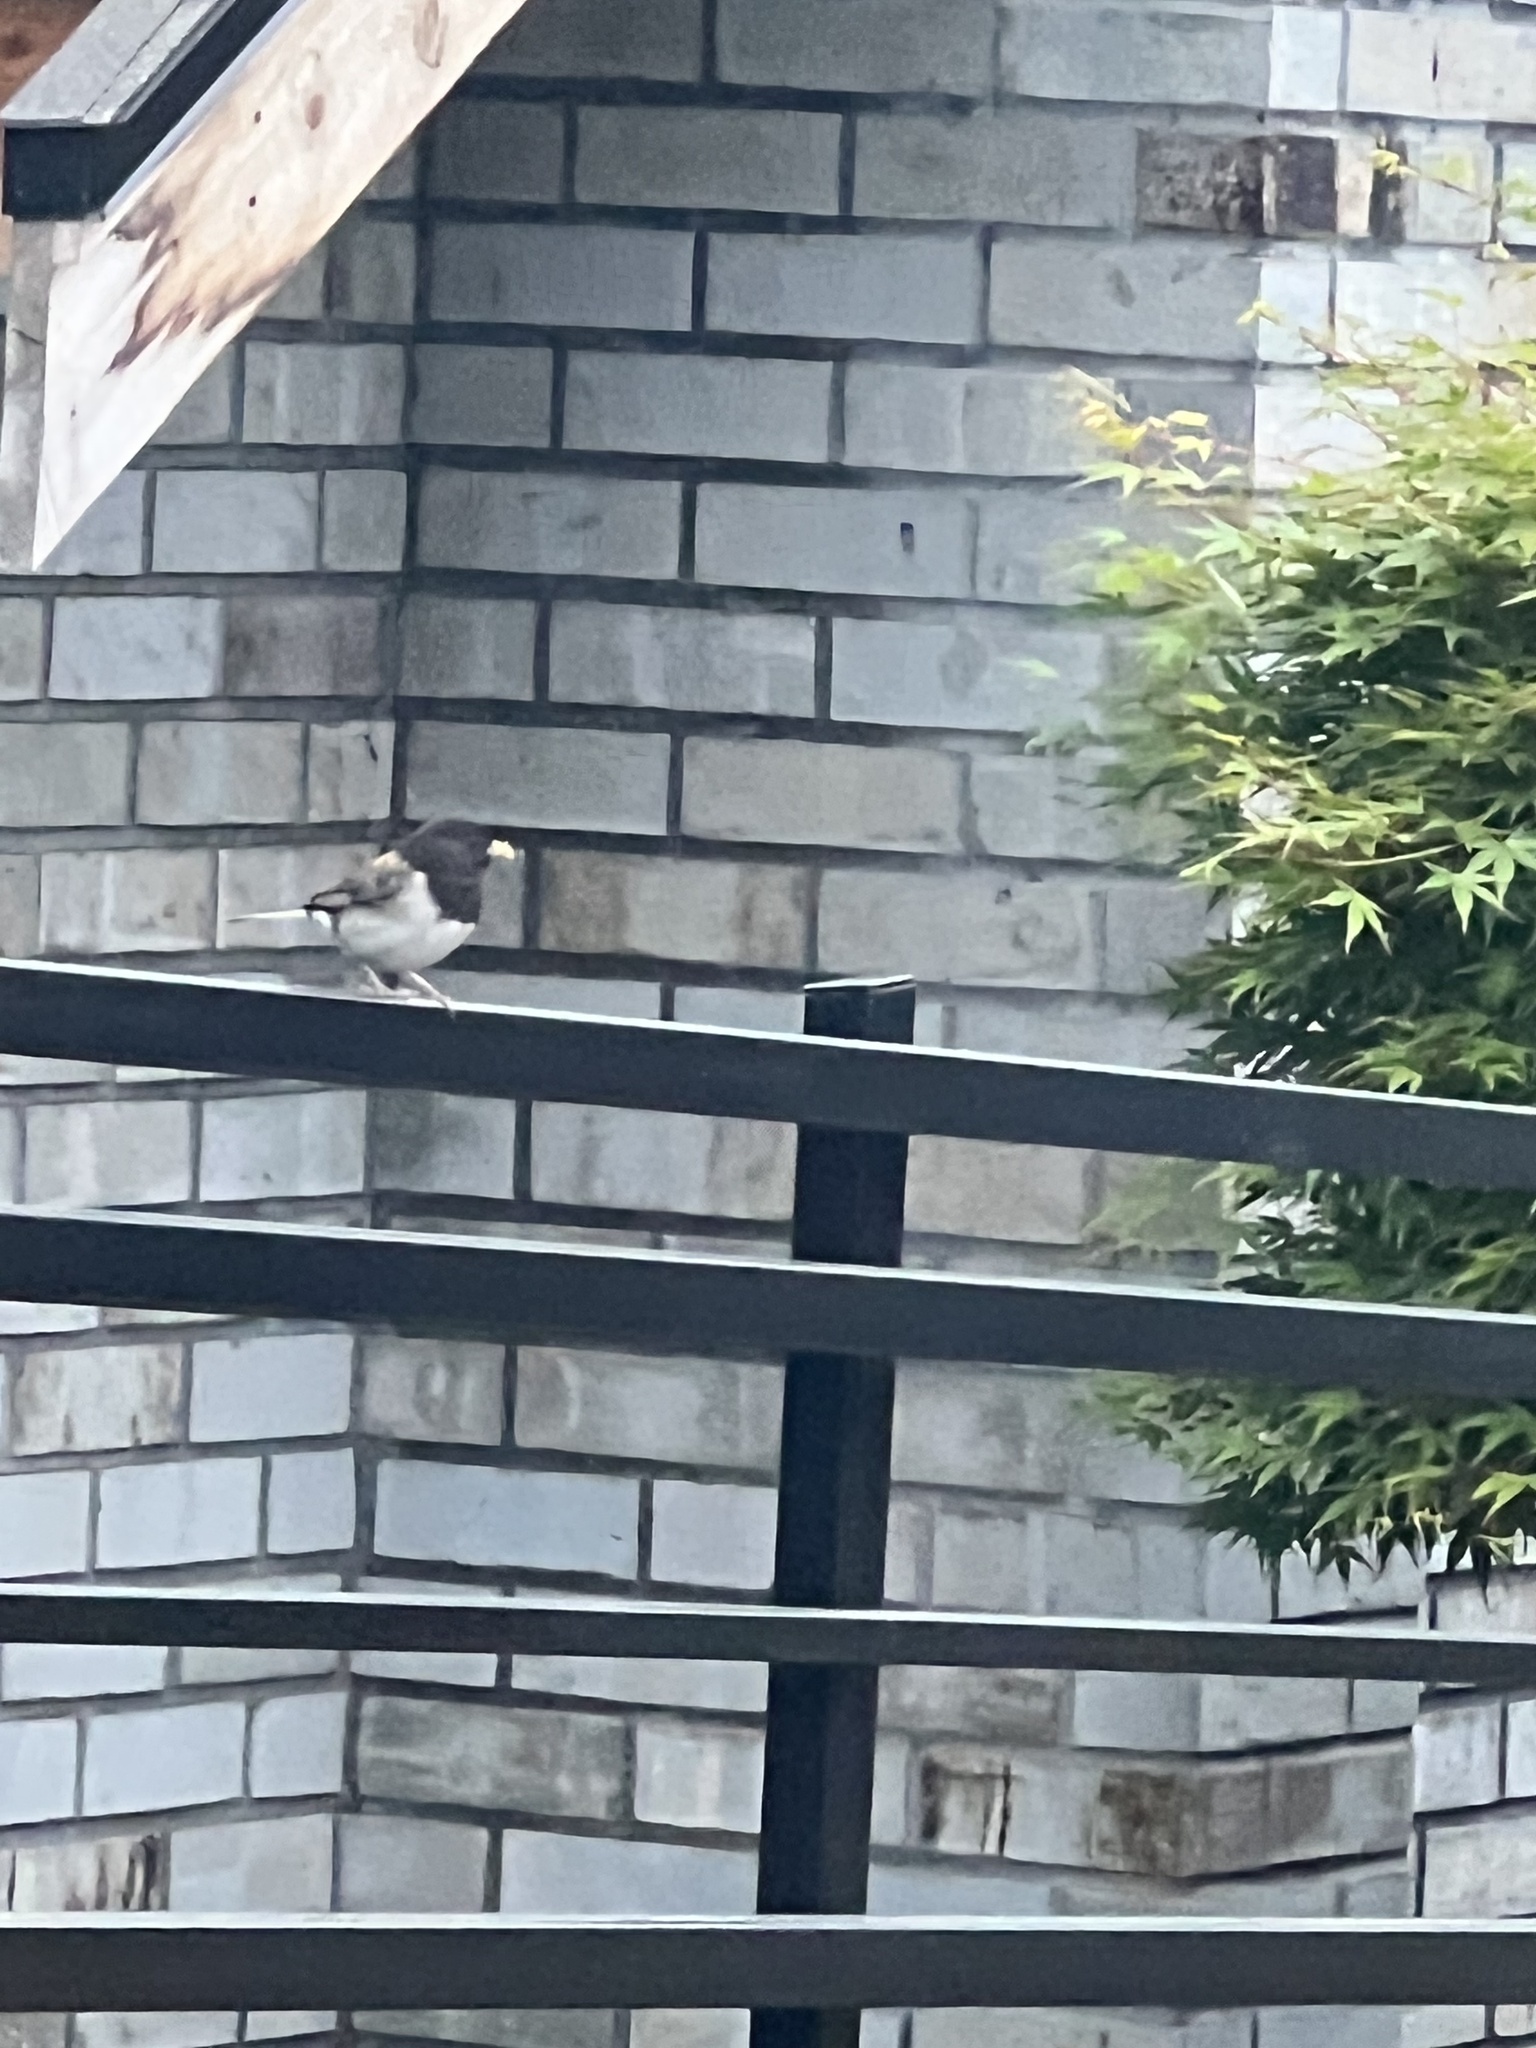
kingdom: Animalia
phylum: Chordata
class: Aves
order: Passeriformes
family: Passerellidae
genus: Junco
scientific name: Junco hyemalis
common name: Dark-eyed junco
